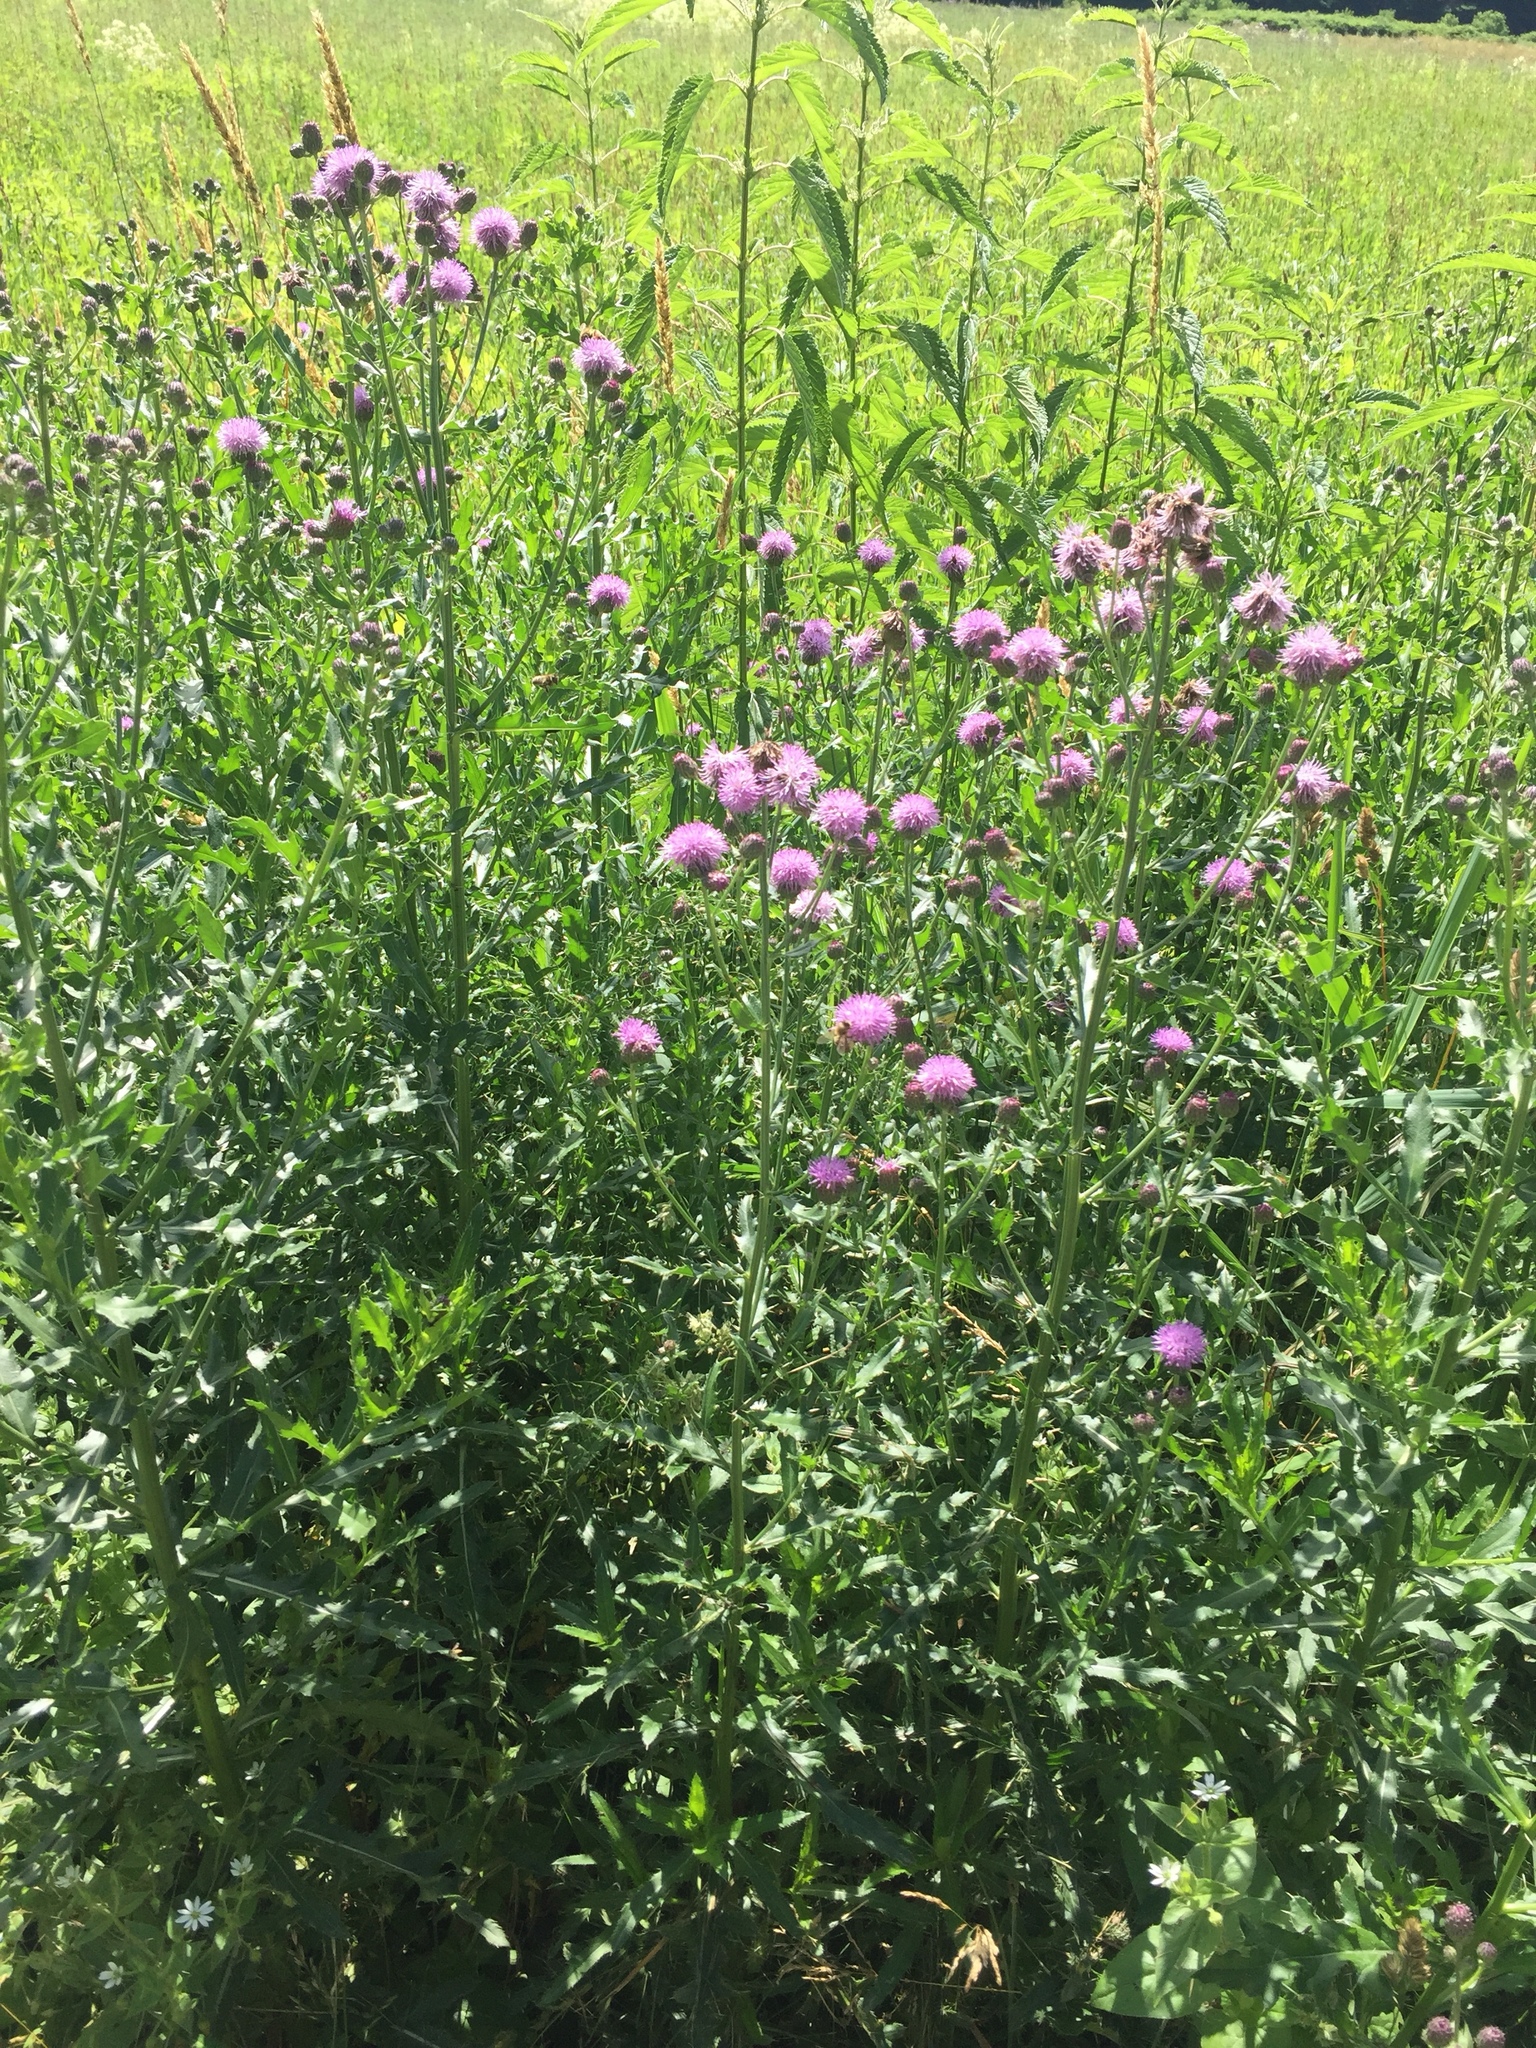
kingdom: Plantae
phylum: Tracheophyta
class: Magnoliopsida
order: Asterales
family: Asteraceae
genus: Cirsium
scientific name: Cirsium arvense
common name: Creeping thistle
